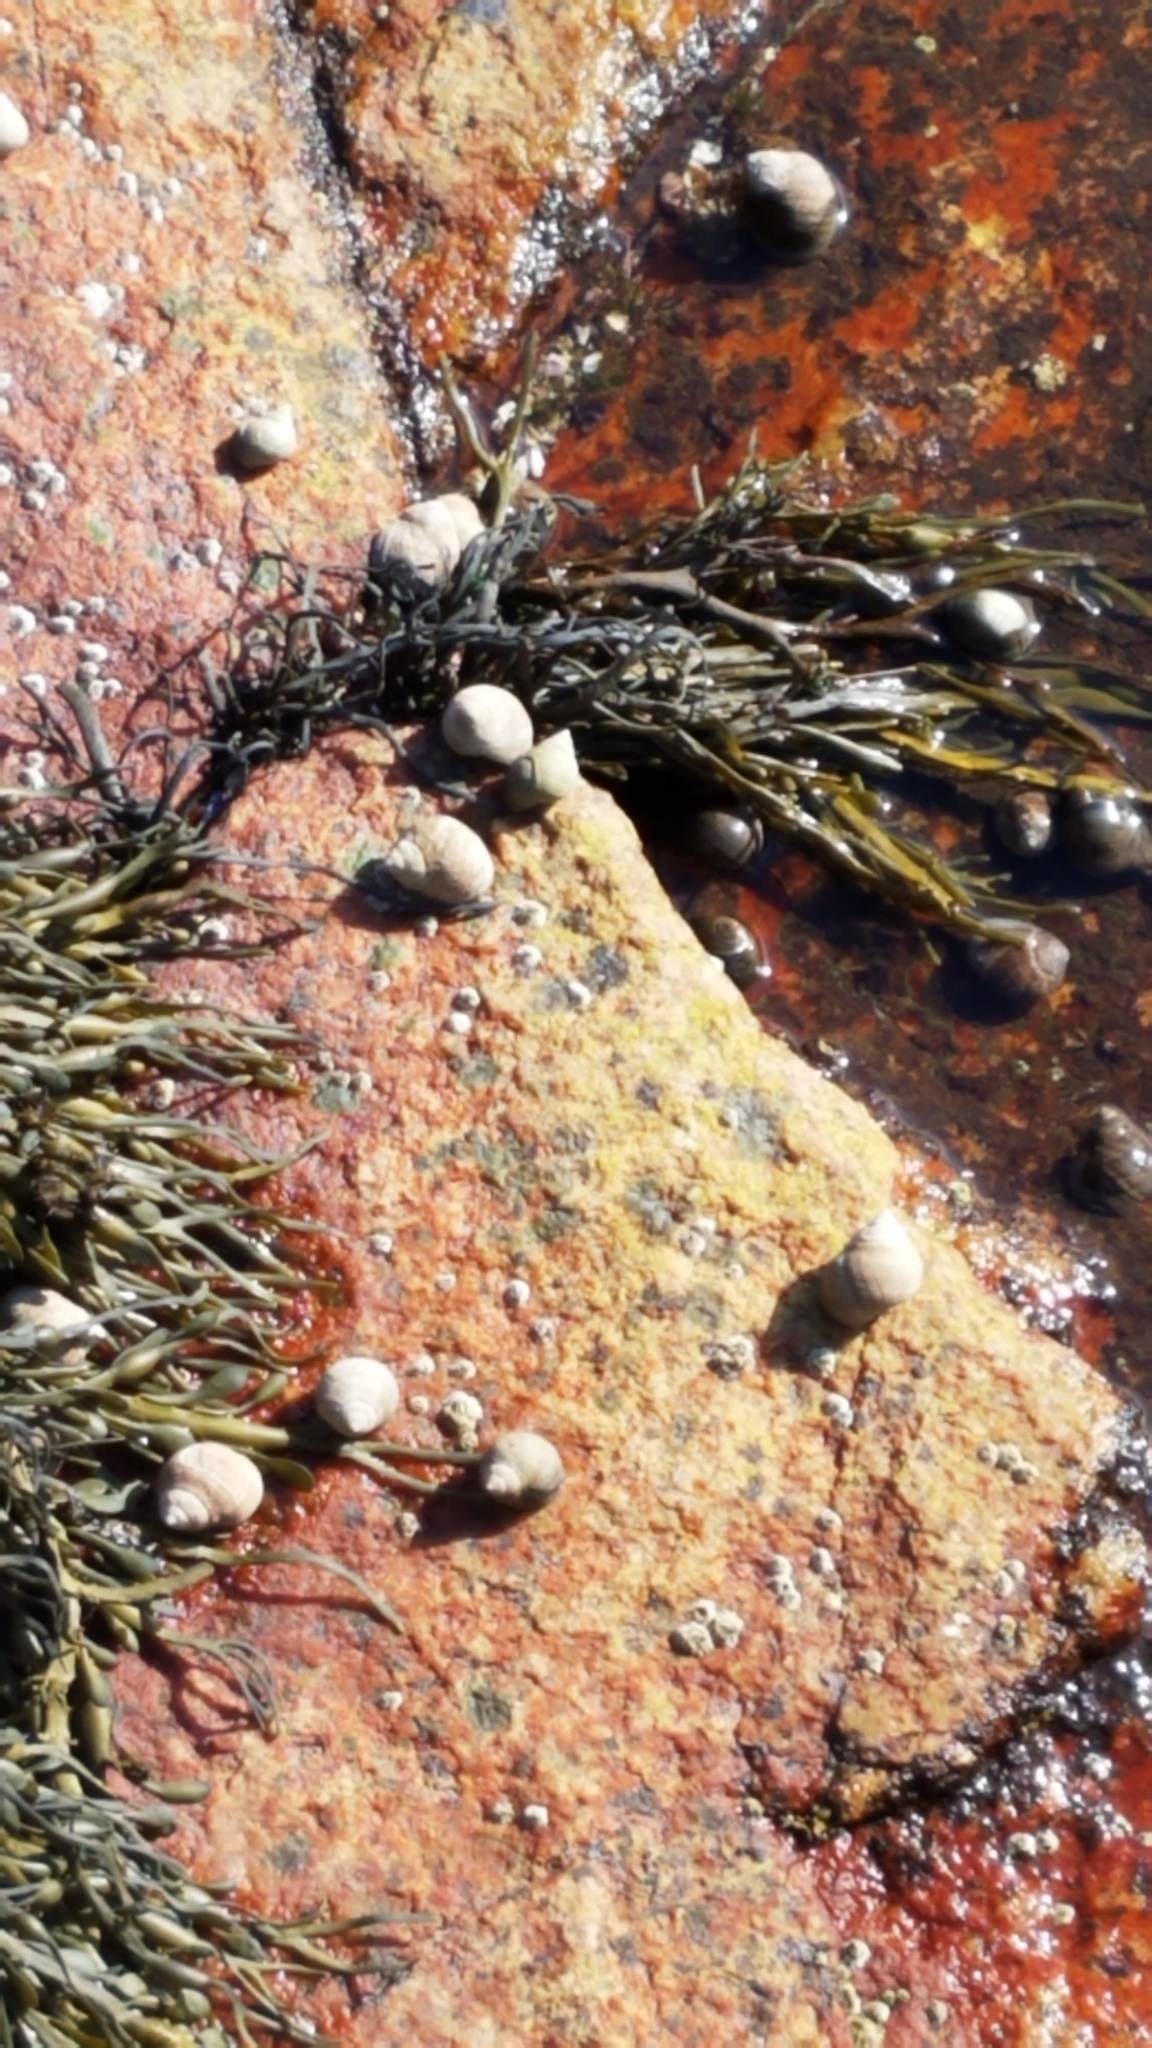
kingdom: Chromista
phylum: Ochrophyta
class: Phaeophyceae
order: Fucales
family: Fucaceae
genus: Ascophyllum
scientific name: Ascophyllum nodosum
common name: Knotted wrack
